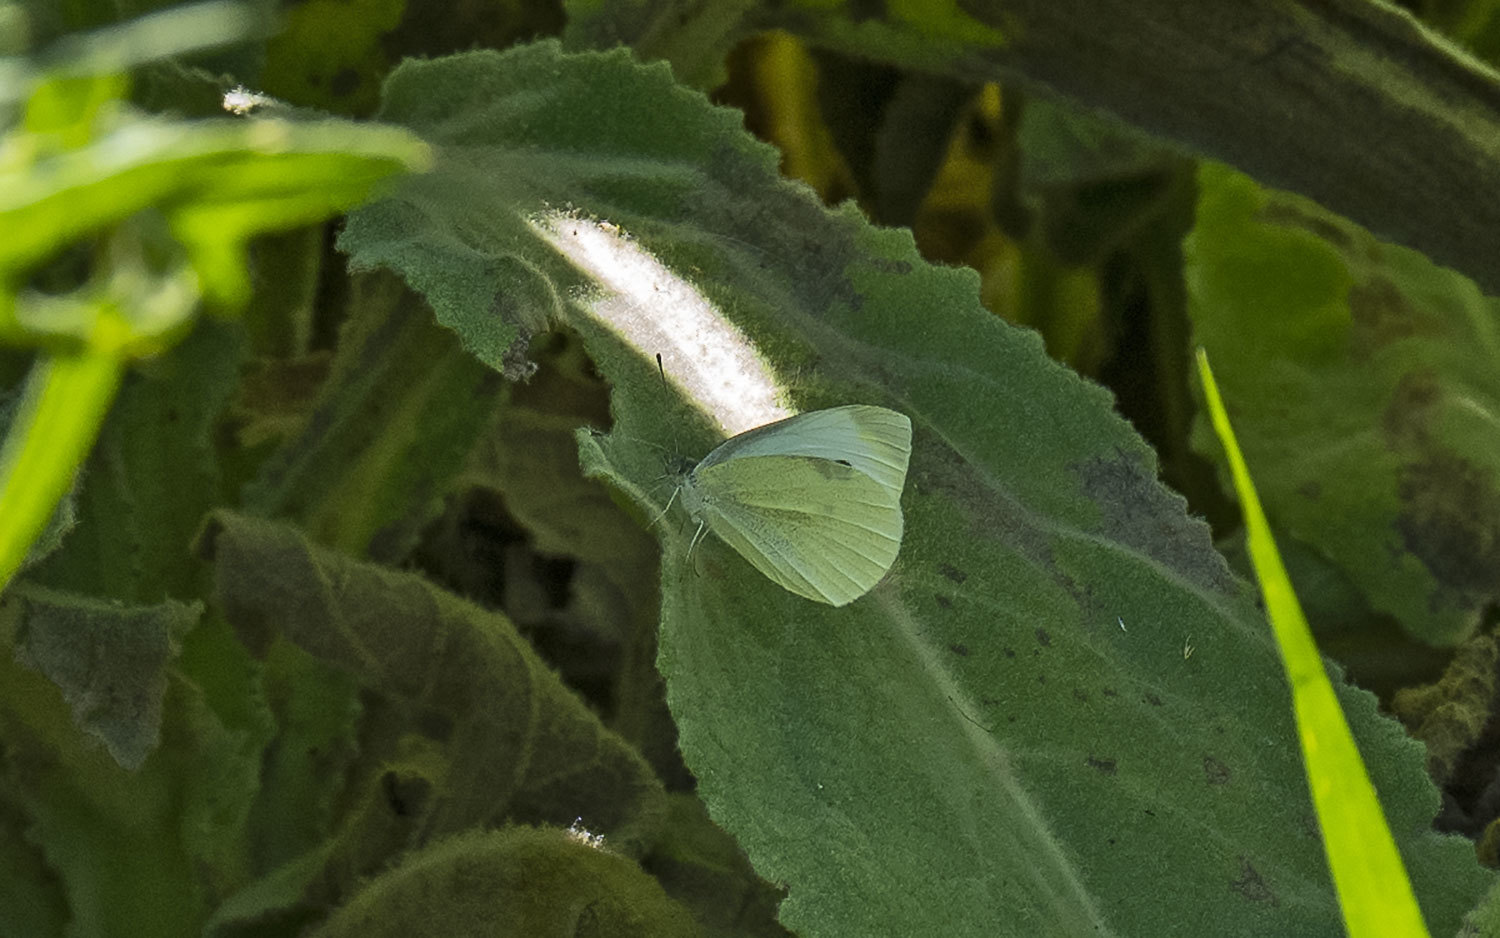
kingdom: Animalia
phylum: Arthropoda
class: Insecta
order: Lepidoptera
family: Pieridae
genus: Pieris
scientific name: Pieris rapae
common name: Small white
